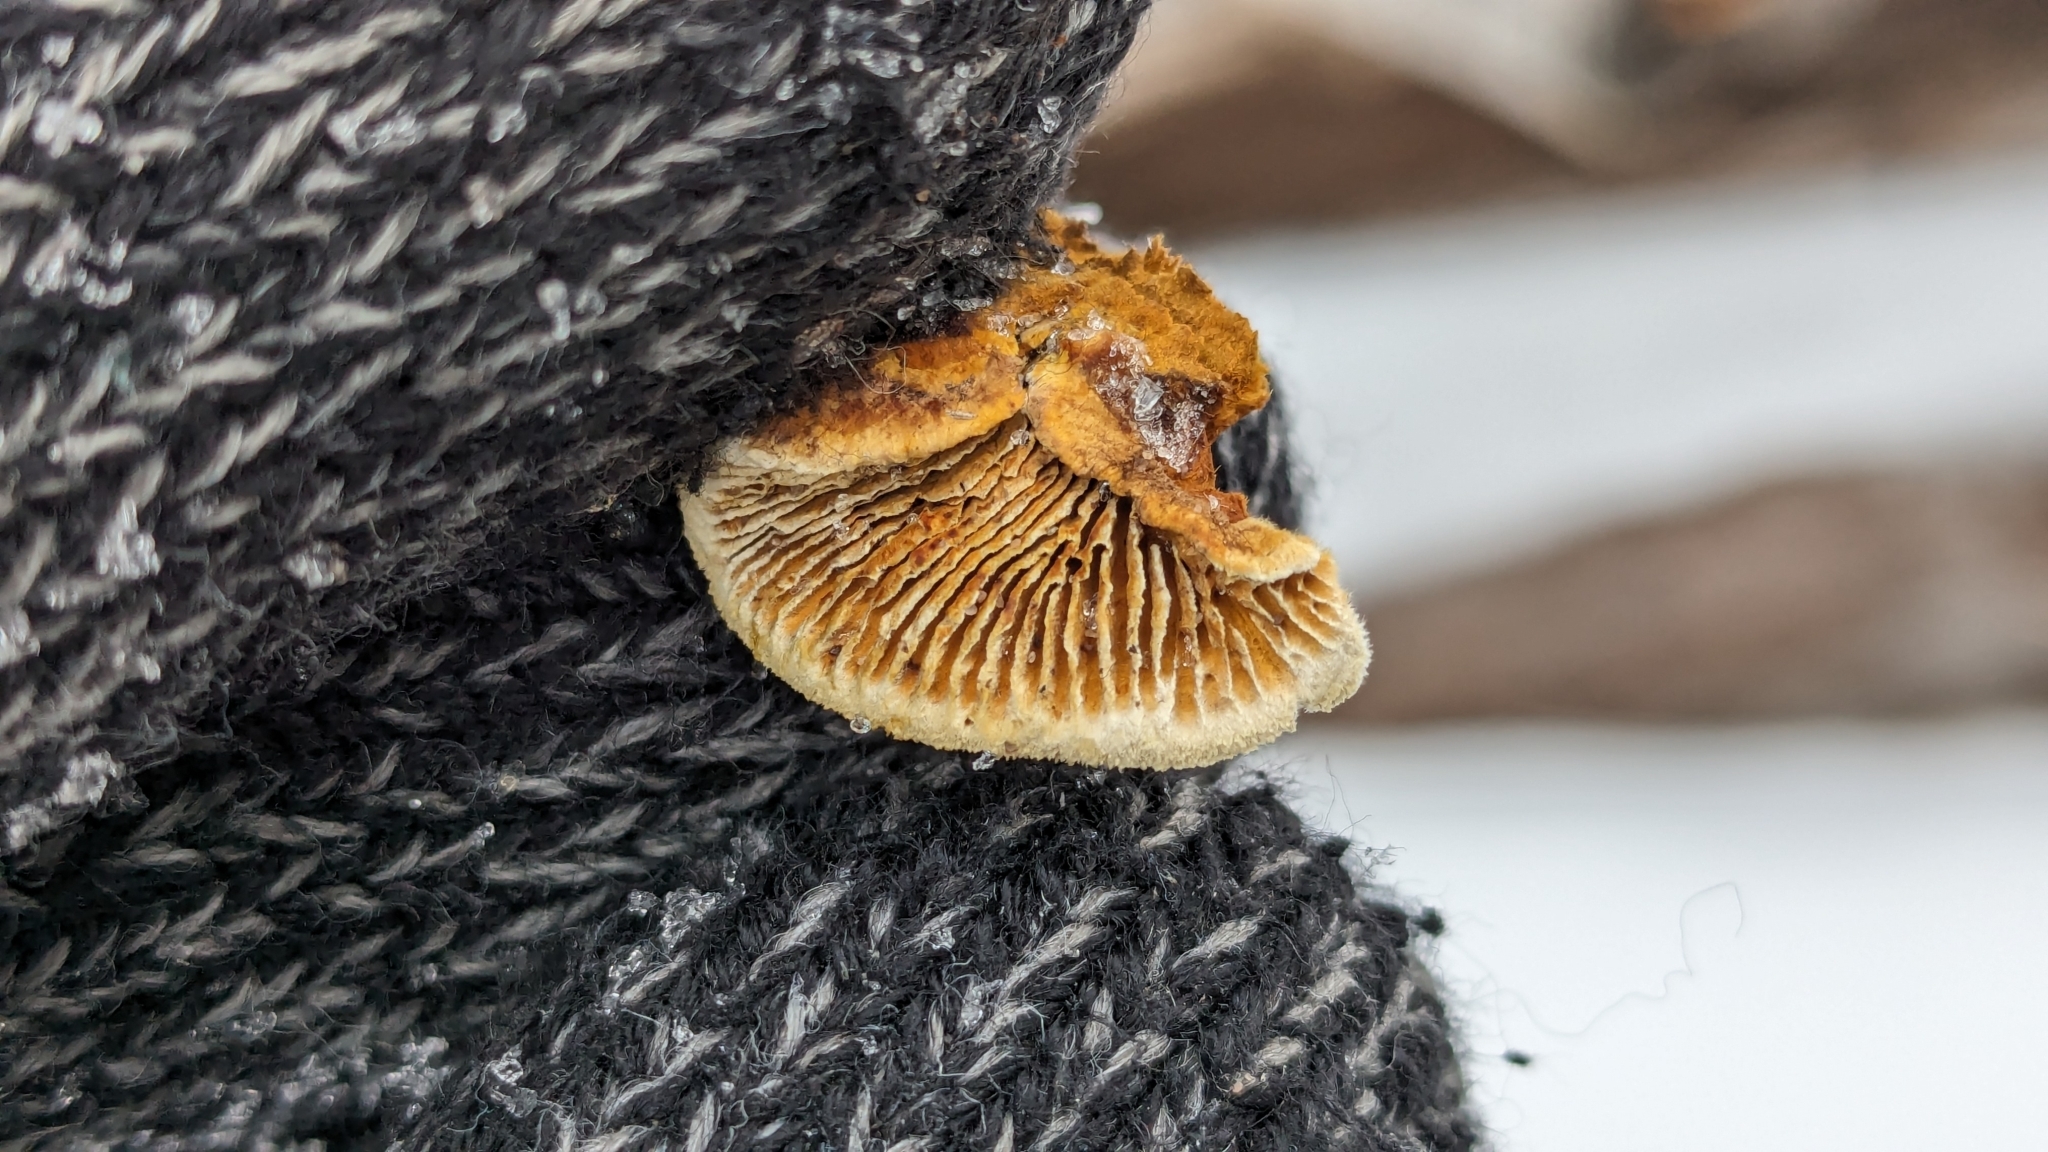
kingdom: Fungi
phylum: Basidiomycota
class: Agaricomycetes
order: Gloeophyllales
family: Gloeophyllaceae
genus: Gloeophyllum
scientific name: Gloeophyllum sepiarium
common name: Conifer mazegill
